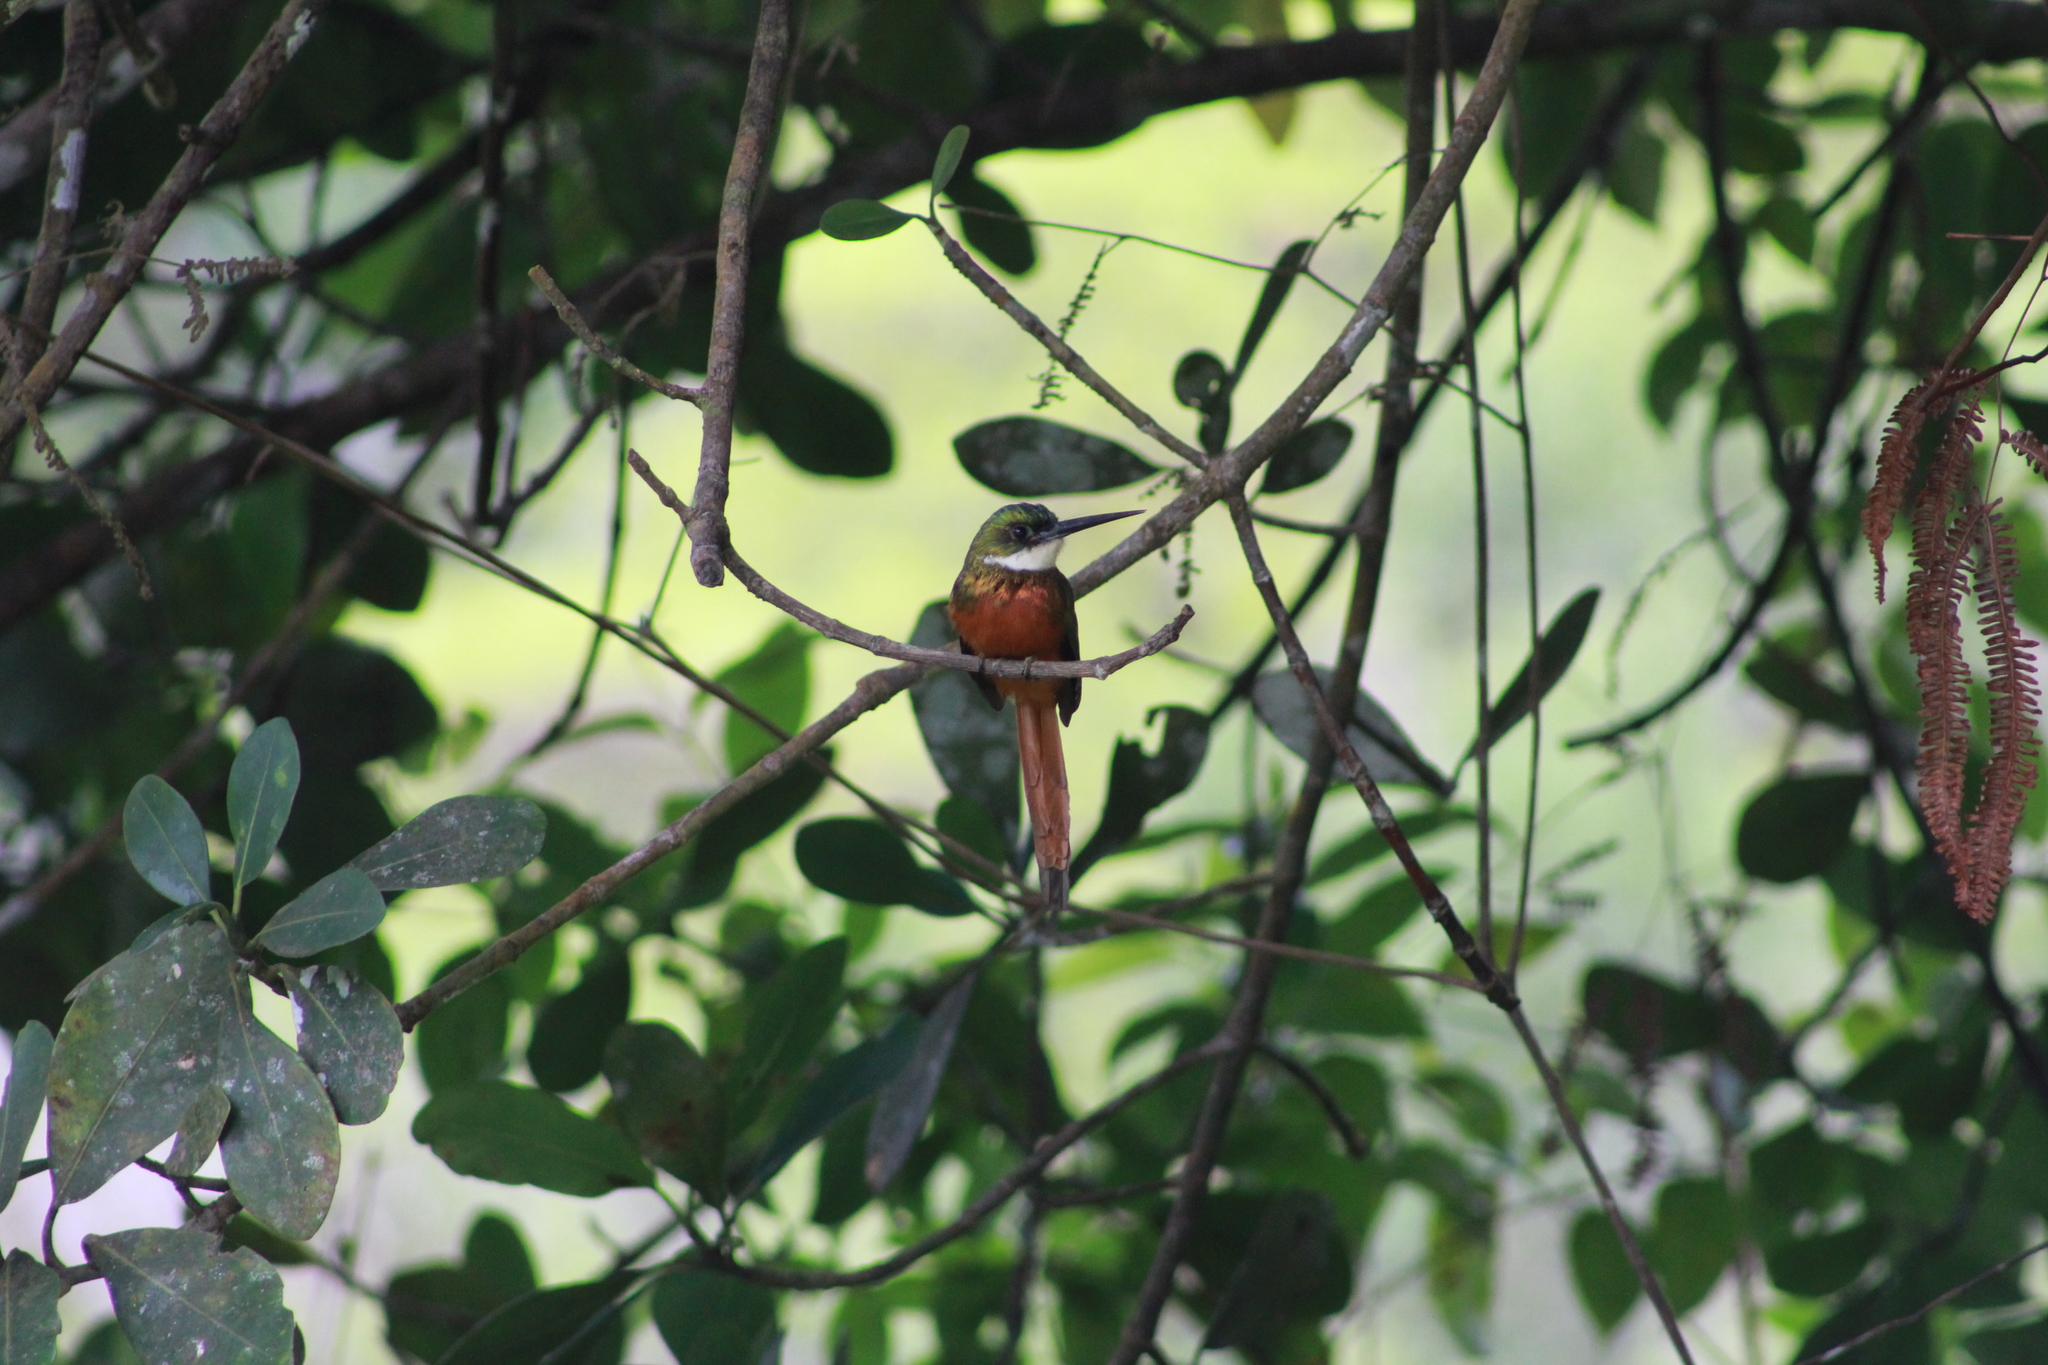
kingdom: Animalia
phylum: Chordata
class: Aves
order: Piciformes
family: Galbulidae
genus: Galbula
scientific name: Galbula ruficauda
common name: Rufous-tailed jacamar
